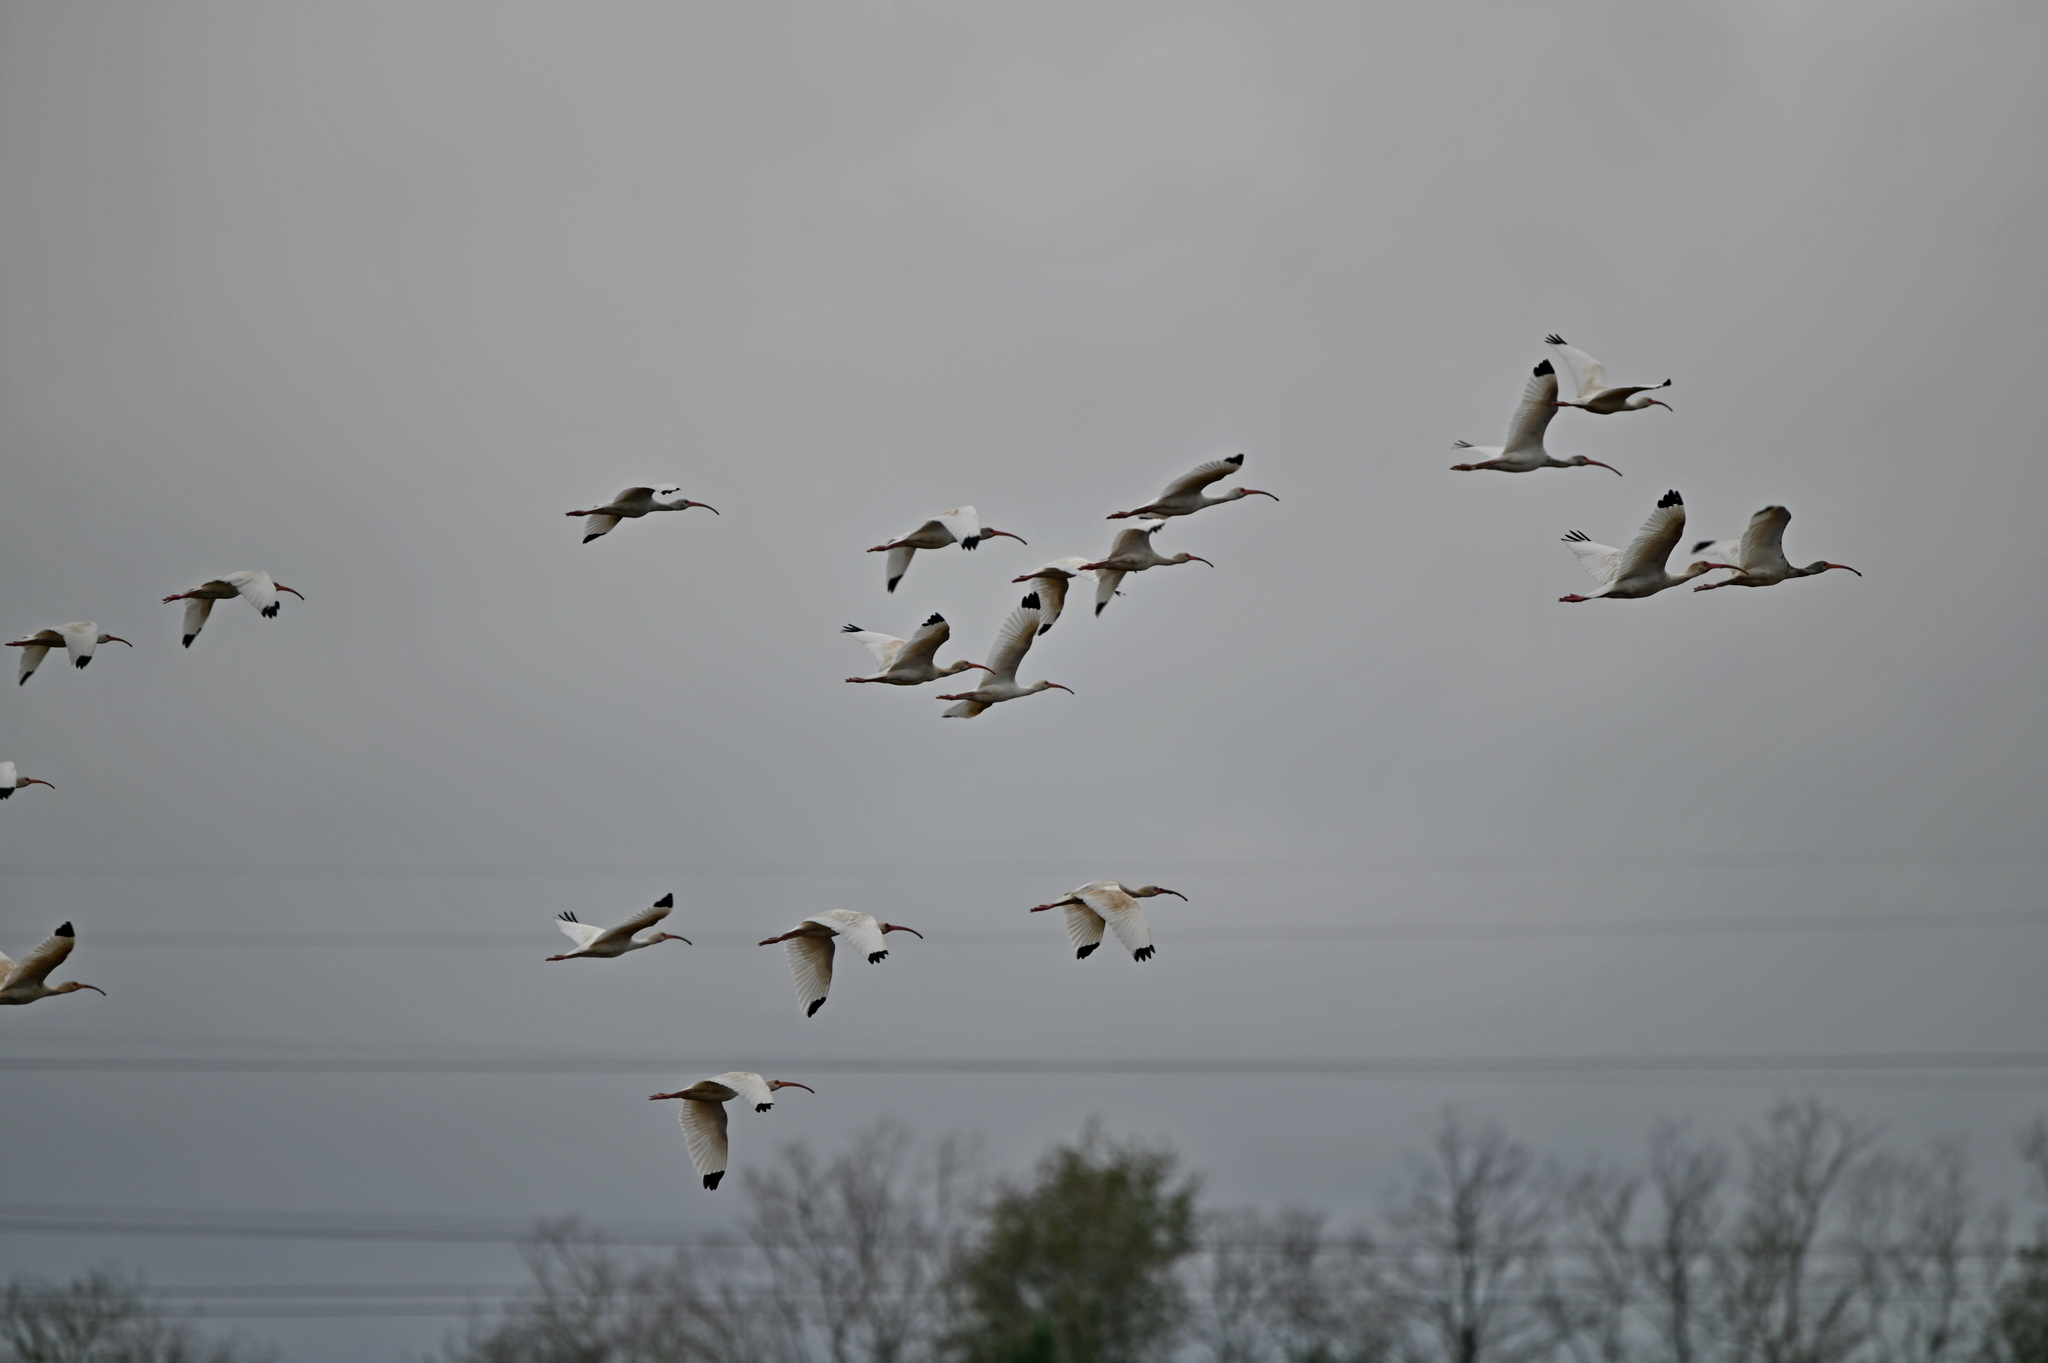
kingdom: Animalia
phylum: Chordata
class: Aves
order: Pelecaniformes
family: Threskiornithidae
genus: Eudocimus
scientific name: Eudocimus albus
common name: White ibis
